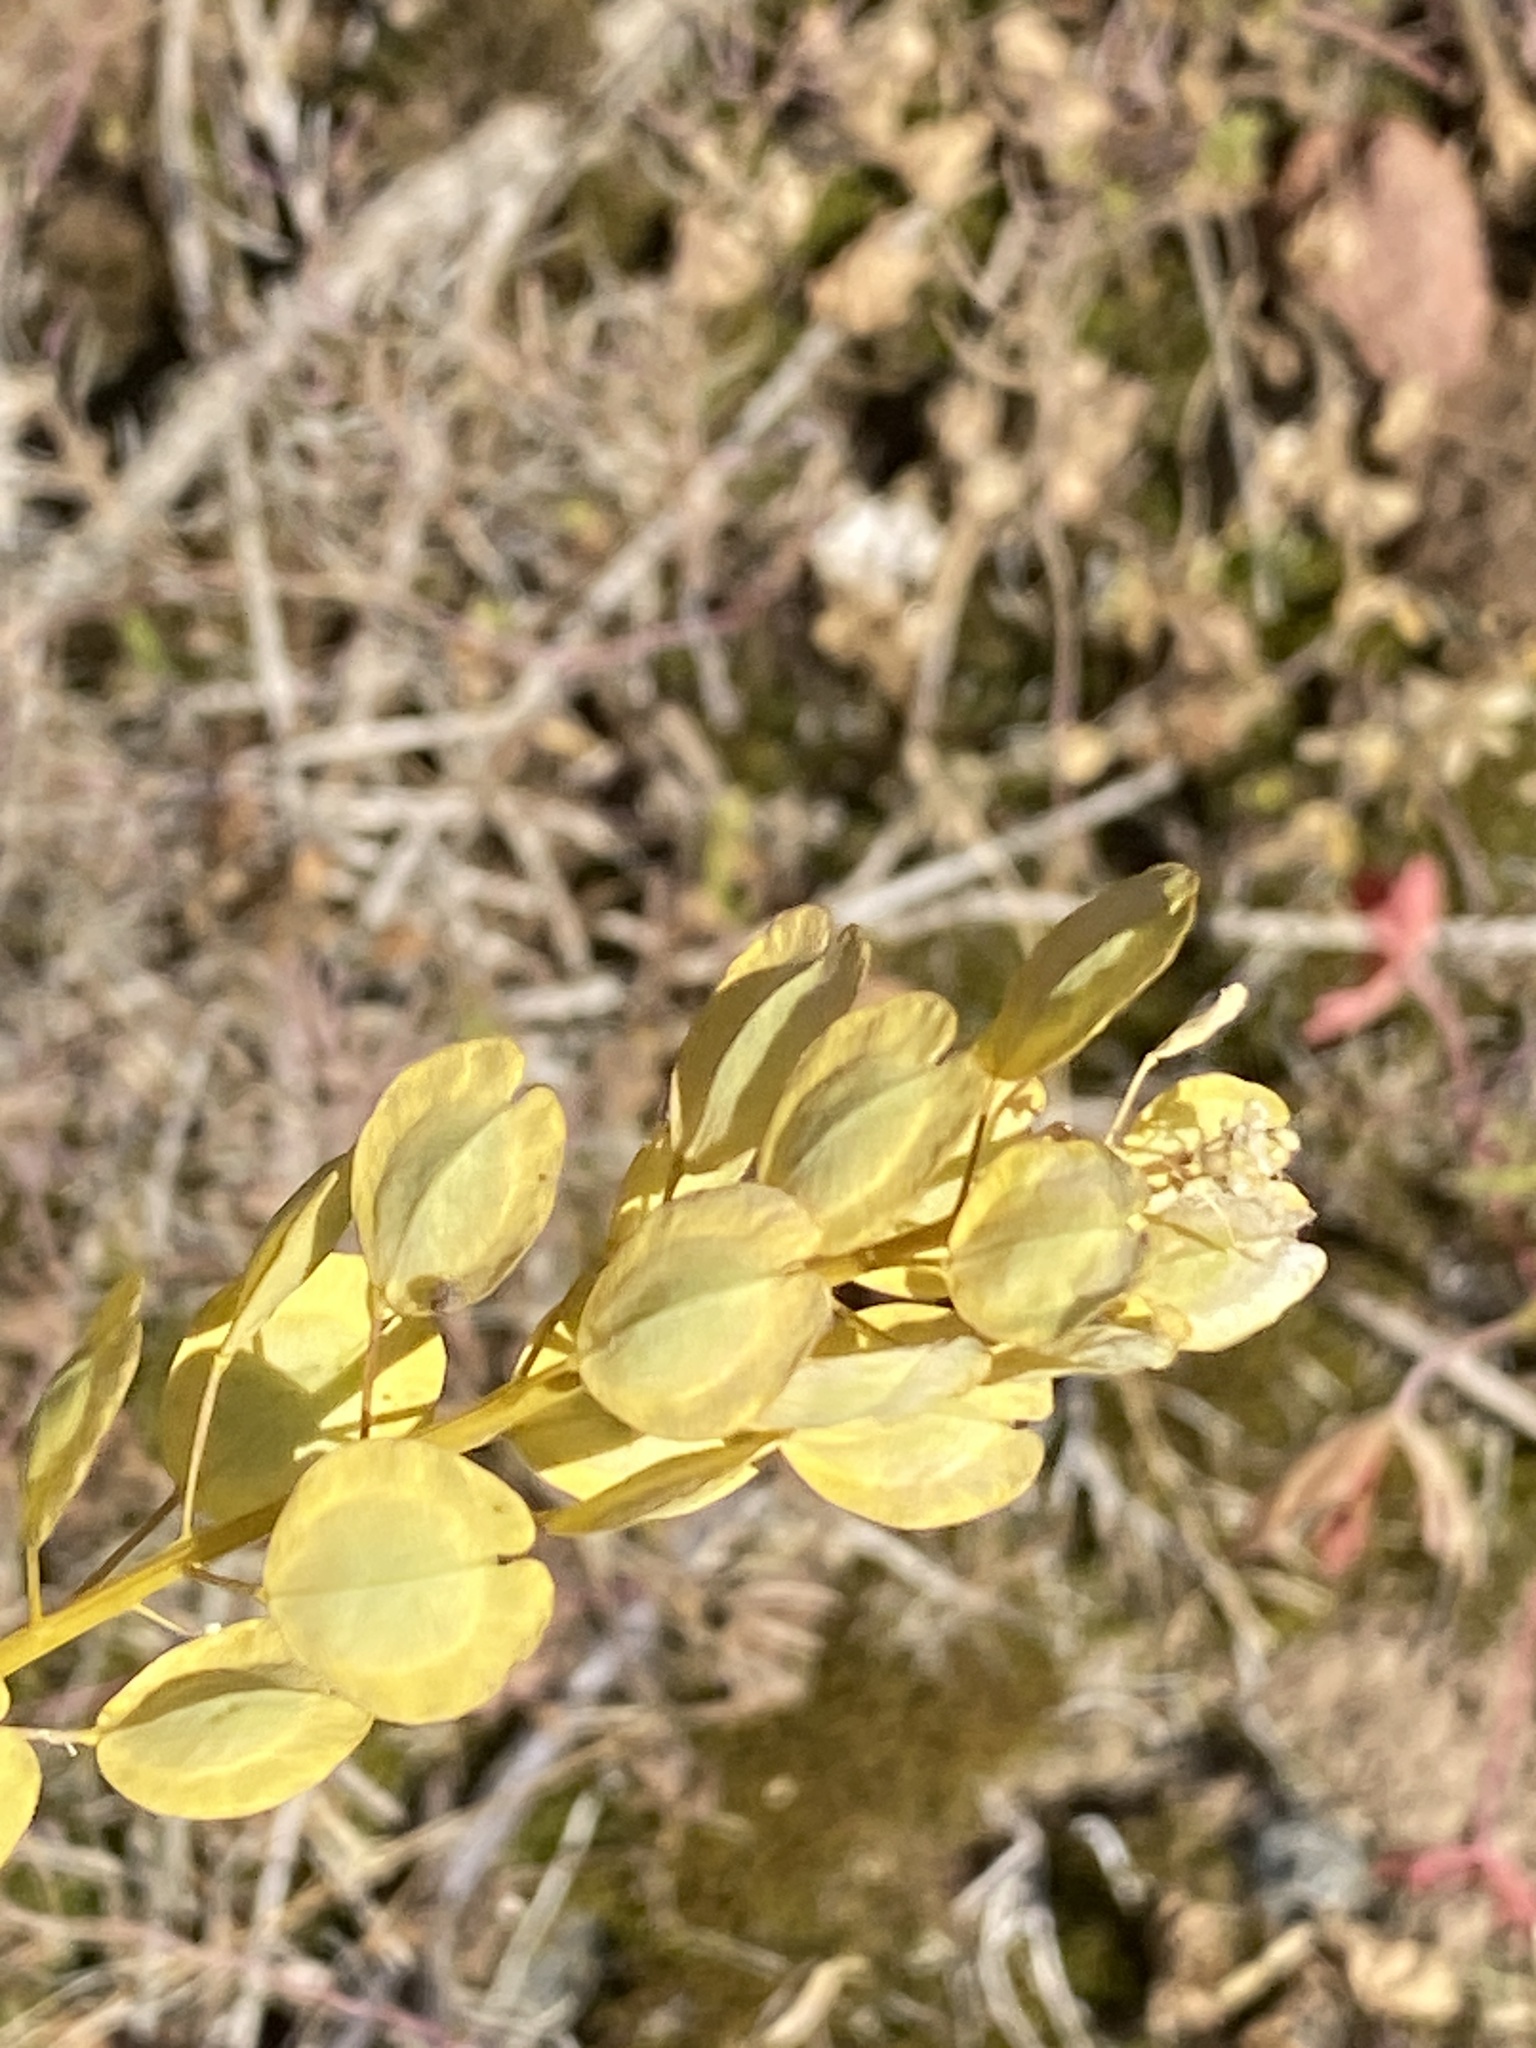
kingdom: Plantae
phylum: Tracheophyta
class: Magnoliopsida
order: Brassicales
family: Brassicaceae
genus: Thlaspi
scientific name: Thlaspi arvense
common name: Field pennycress
